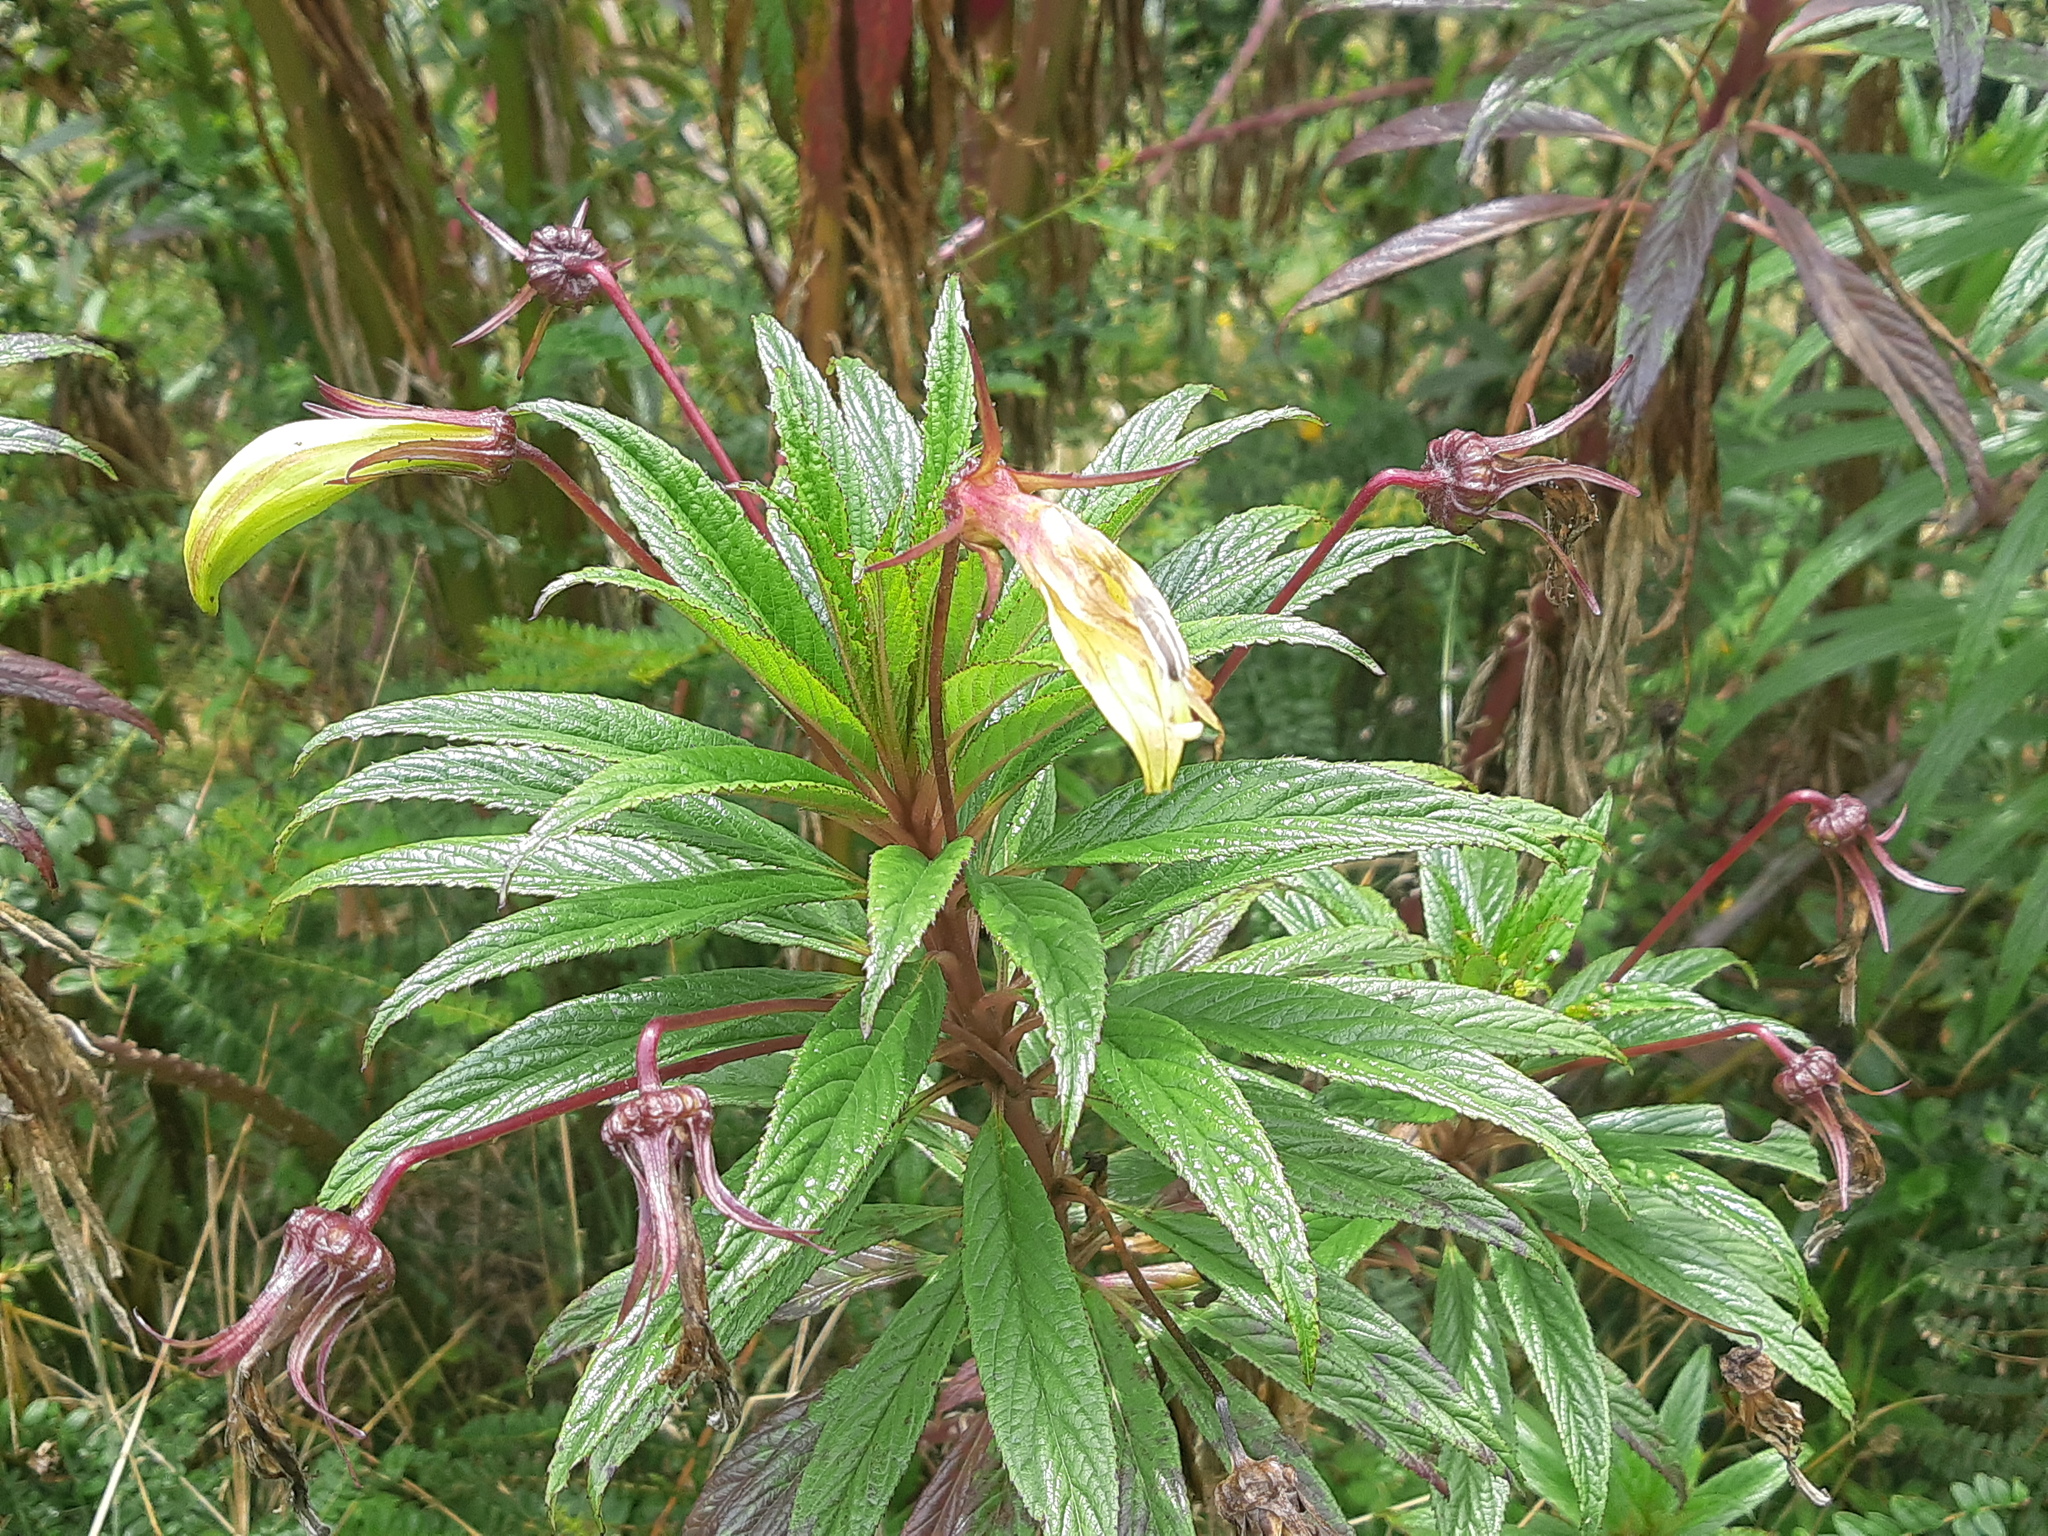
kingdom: Plantae
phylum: Tracheophyta
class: Magnoliopsida
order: Asterales
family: Campanulaceae
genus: Siphocampylus
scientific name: Siphocampylus lucidus
